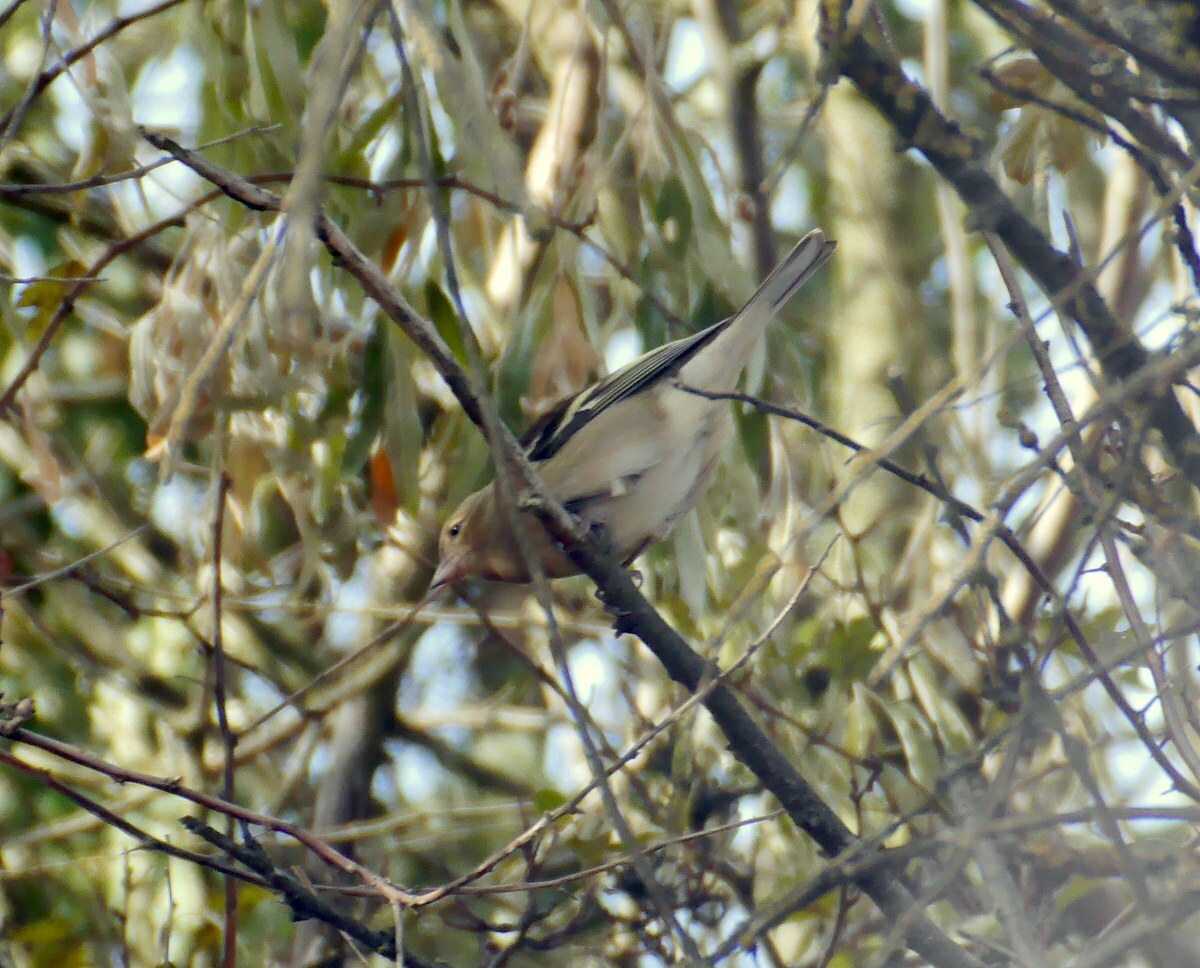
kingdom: Animalia
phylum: Chordata
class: Aves
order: Passeriformes
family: Fringillidae
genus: Fringilla
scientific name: Fringilla coelebs
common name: Common chaffinch
